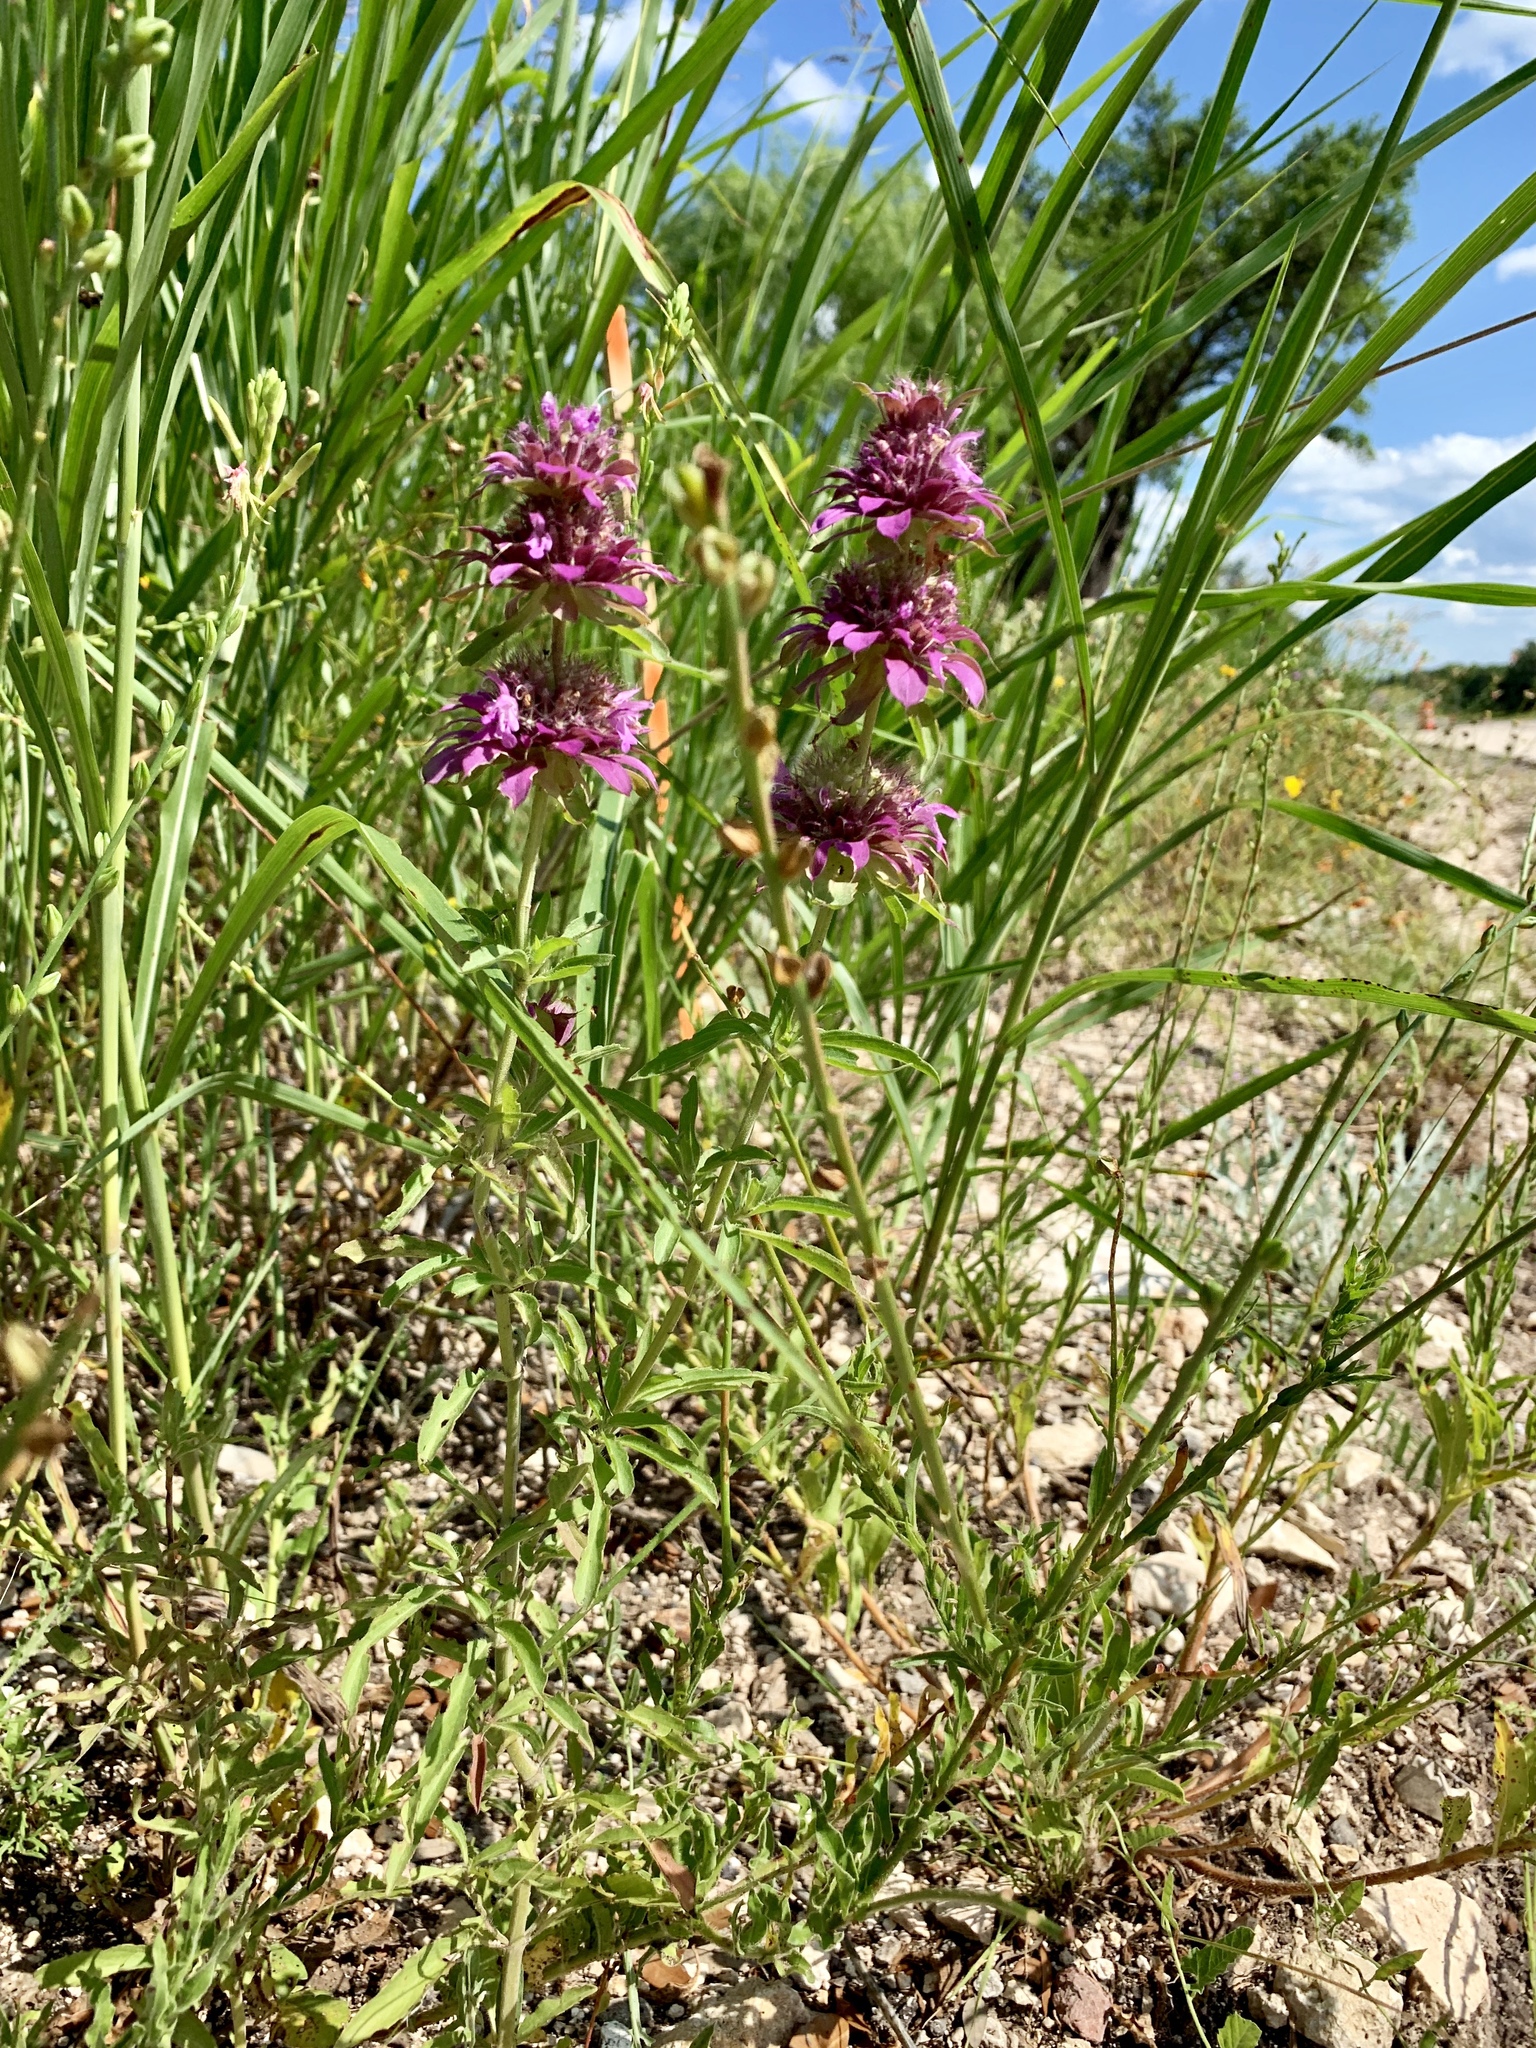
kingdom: Plantae
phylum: Tracheophyta
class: Magnoliopsida
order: Lamiales
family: Lamiaceae
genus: Monarda
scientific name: Monarda citriodora
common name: Lemon beebalm
